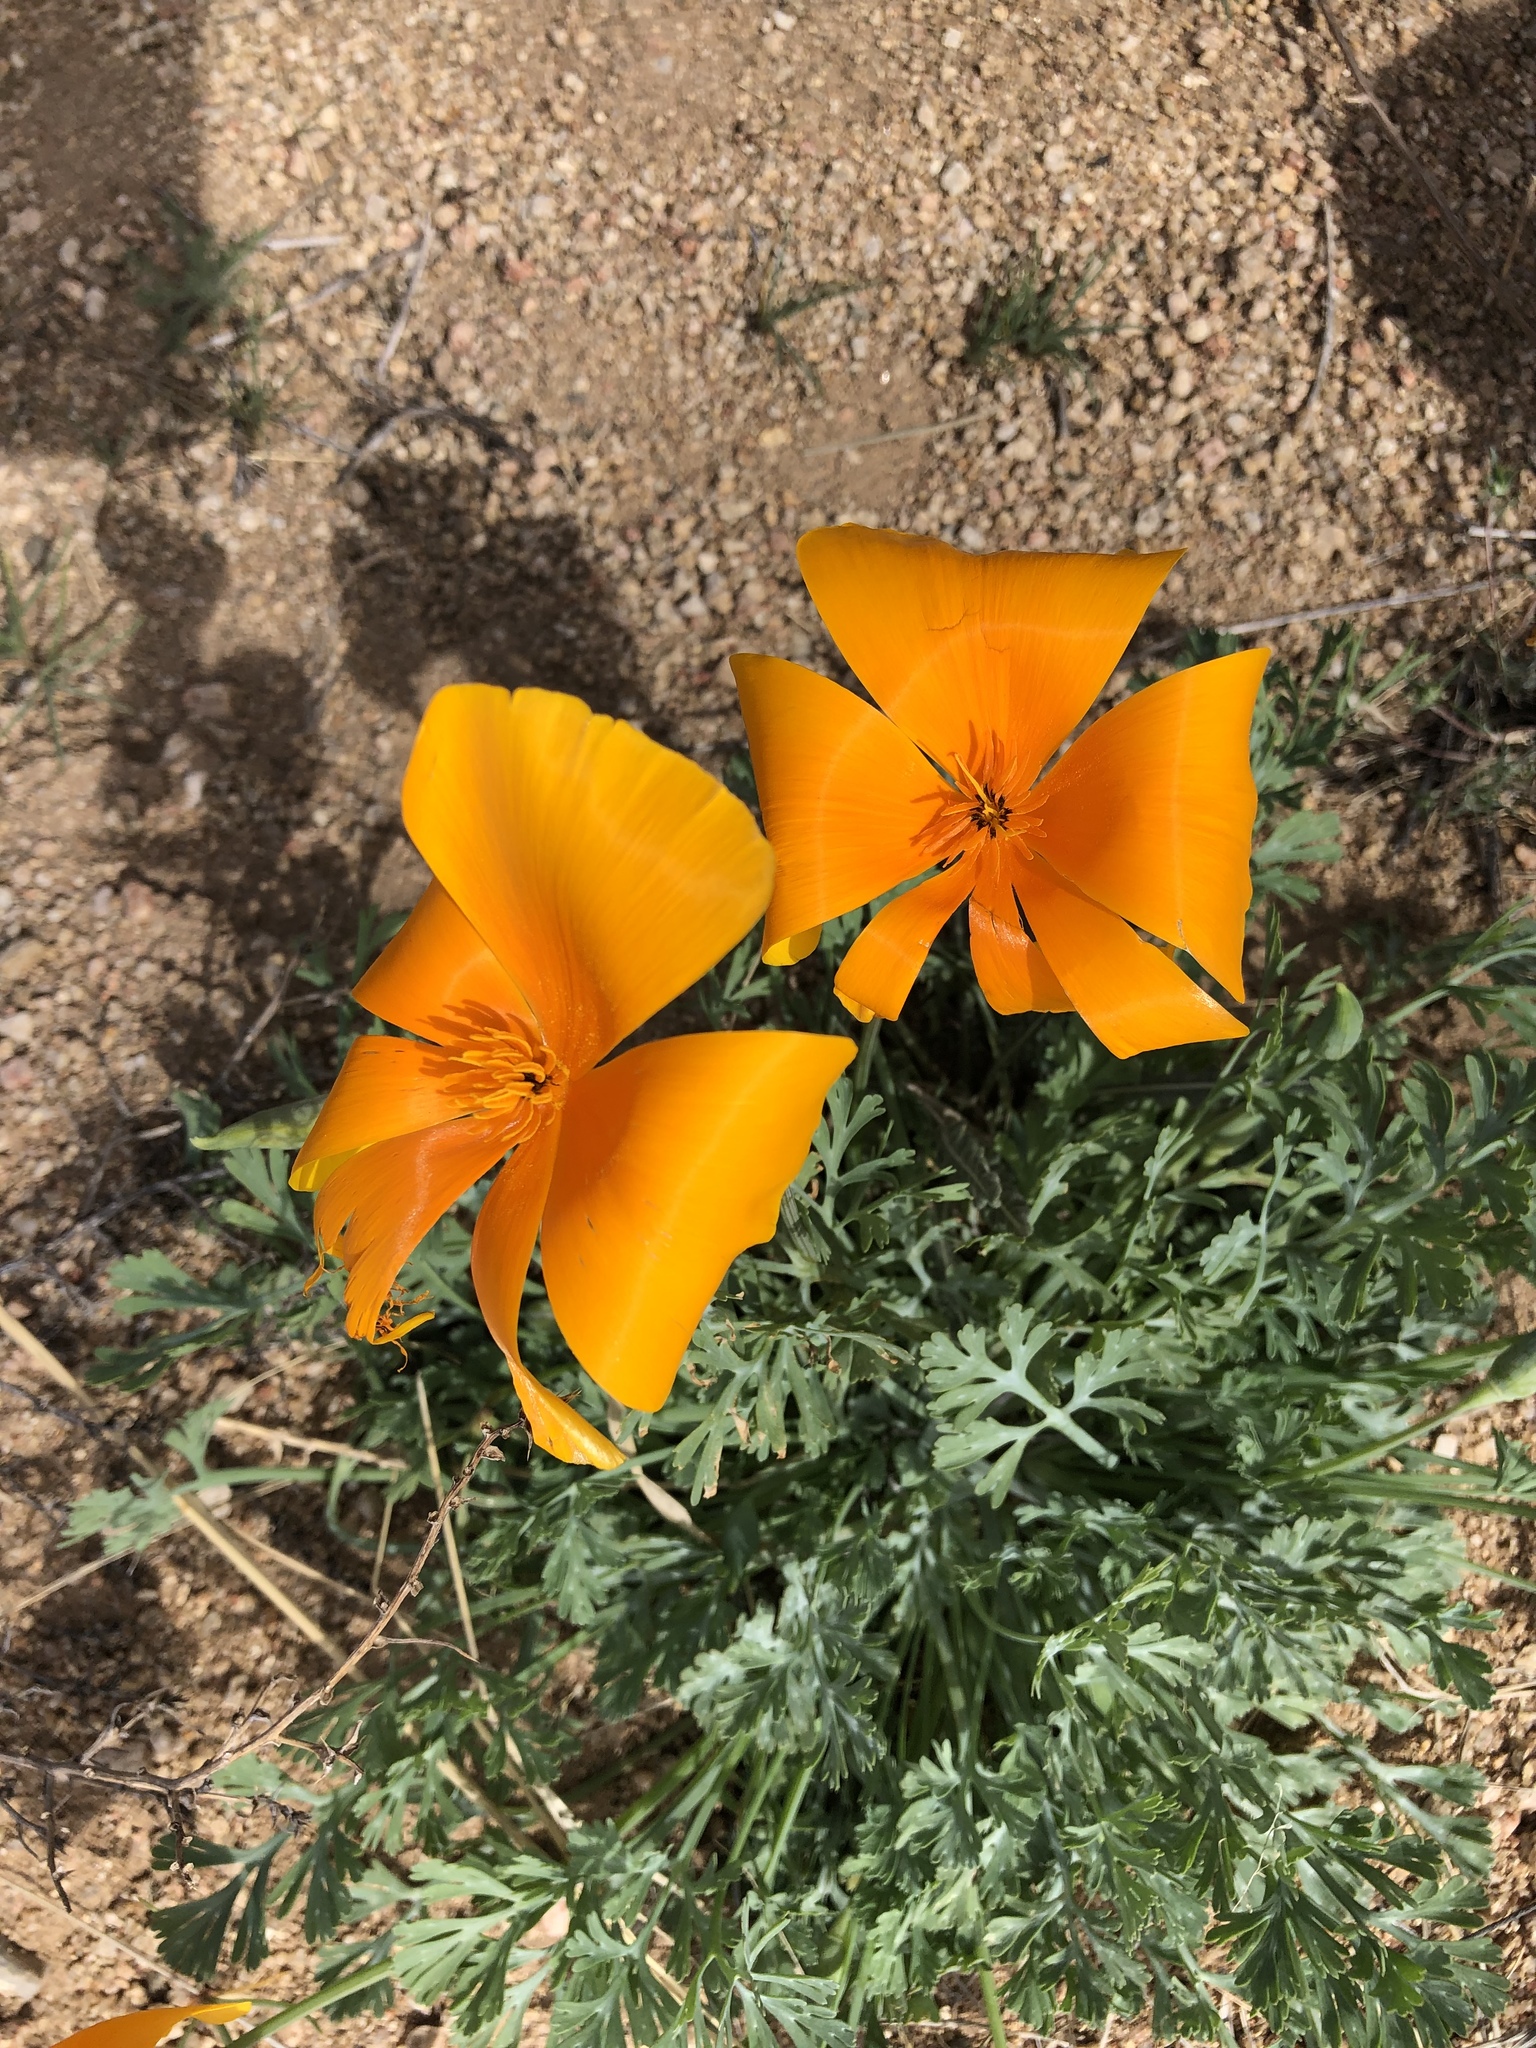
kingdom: Plantae
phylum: Tracheophyta
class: Magnoliopsida
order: Ranunculales
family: Papaveraceae
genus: Eschscholzia
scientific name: Eschscholzia californica
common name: California poppy
